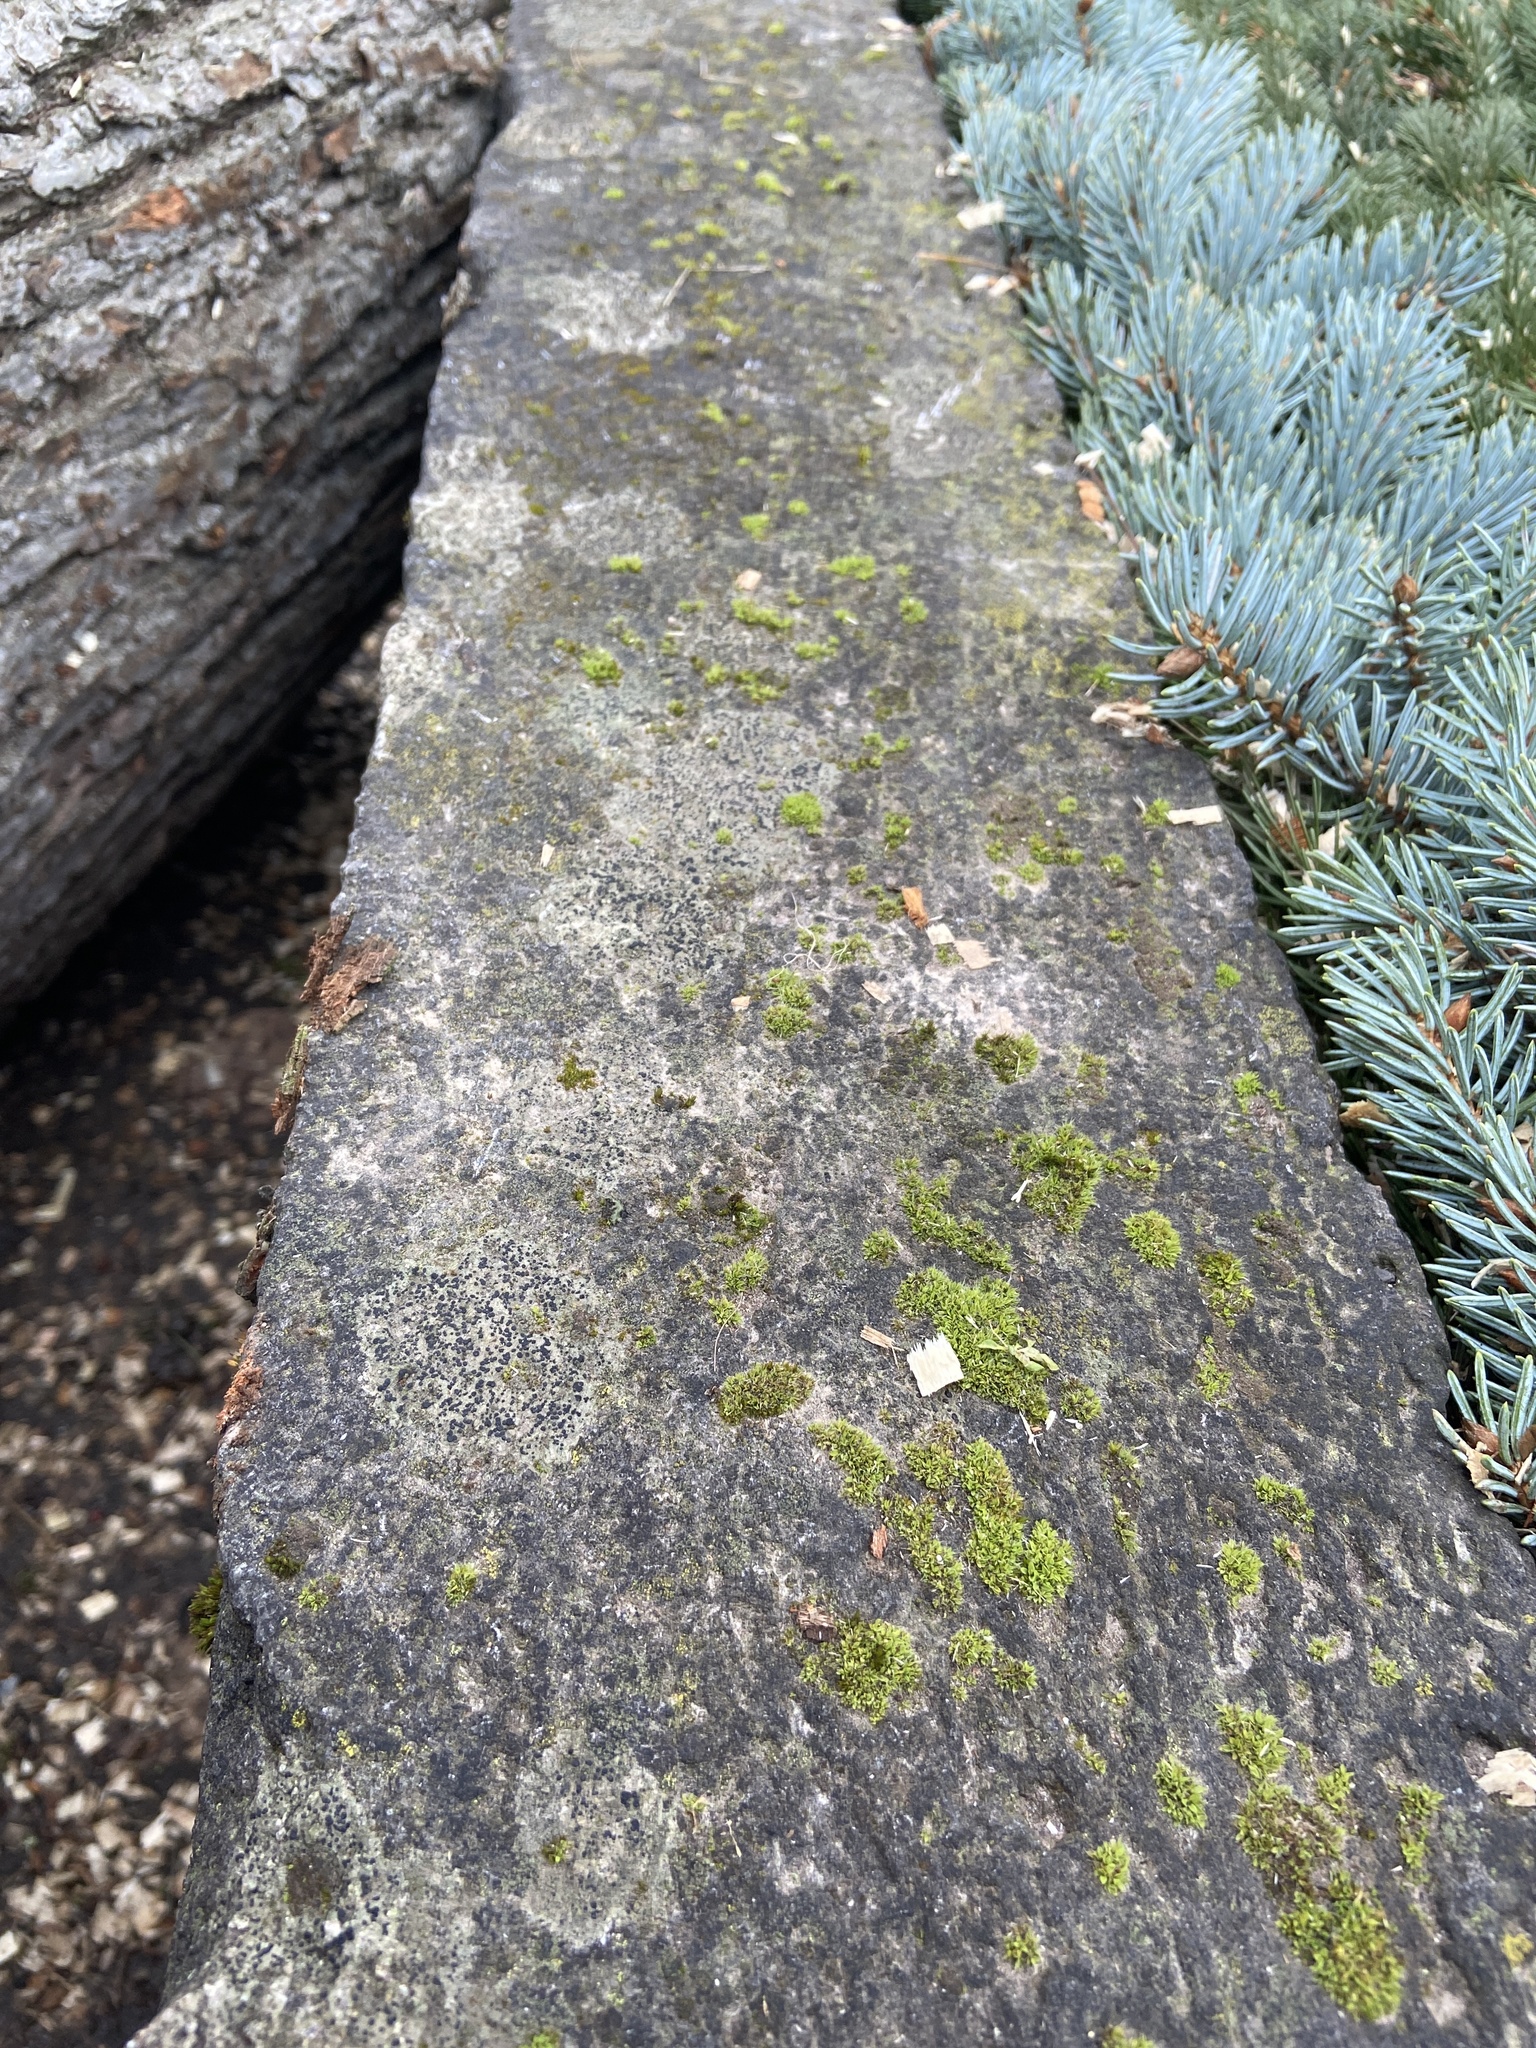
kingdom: Fungi
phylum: Ascomycota
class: Lecanoromycetes
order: Lecanorales
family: Lecanoraceae
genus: Lecidella
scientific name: Lecidella elaeochroma
